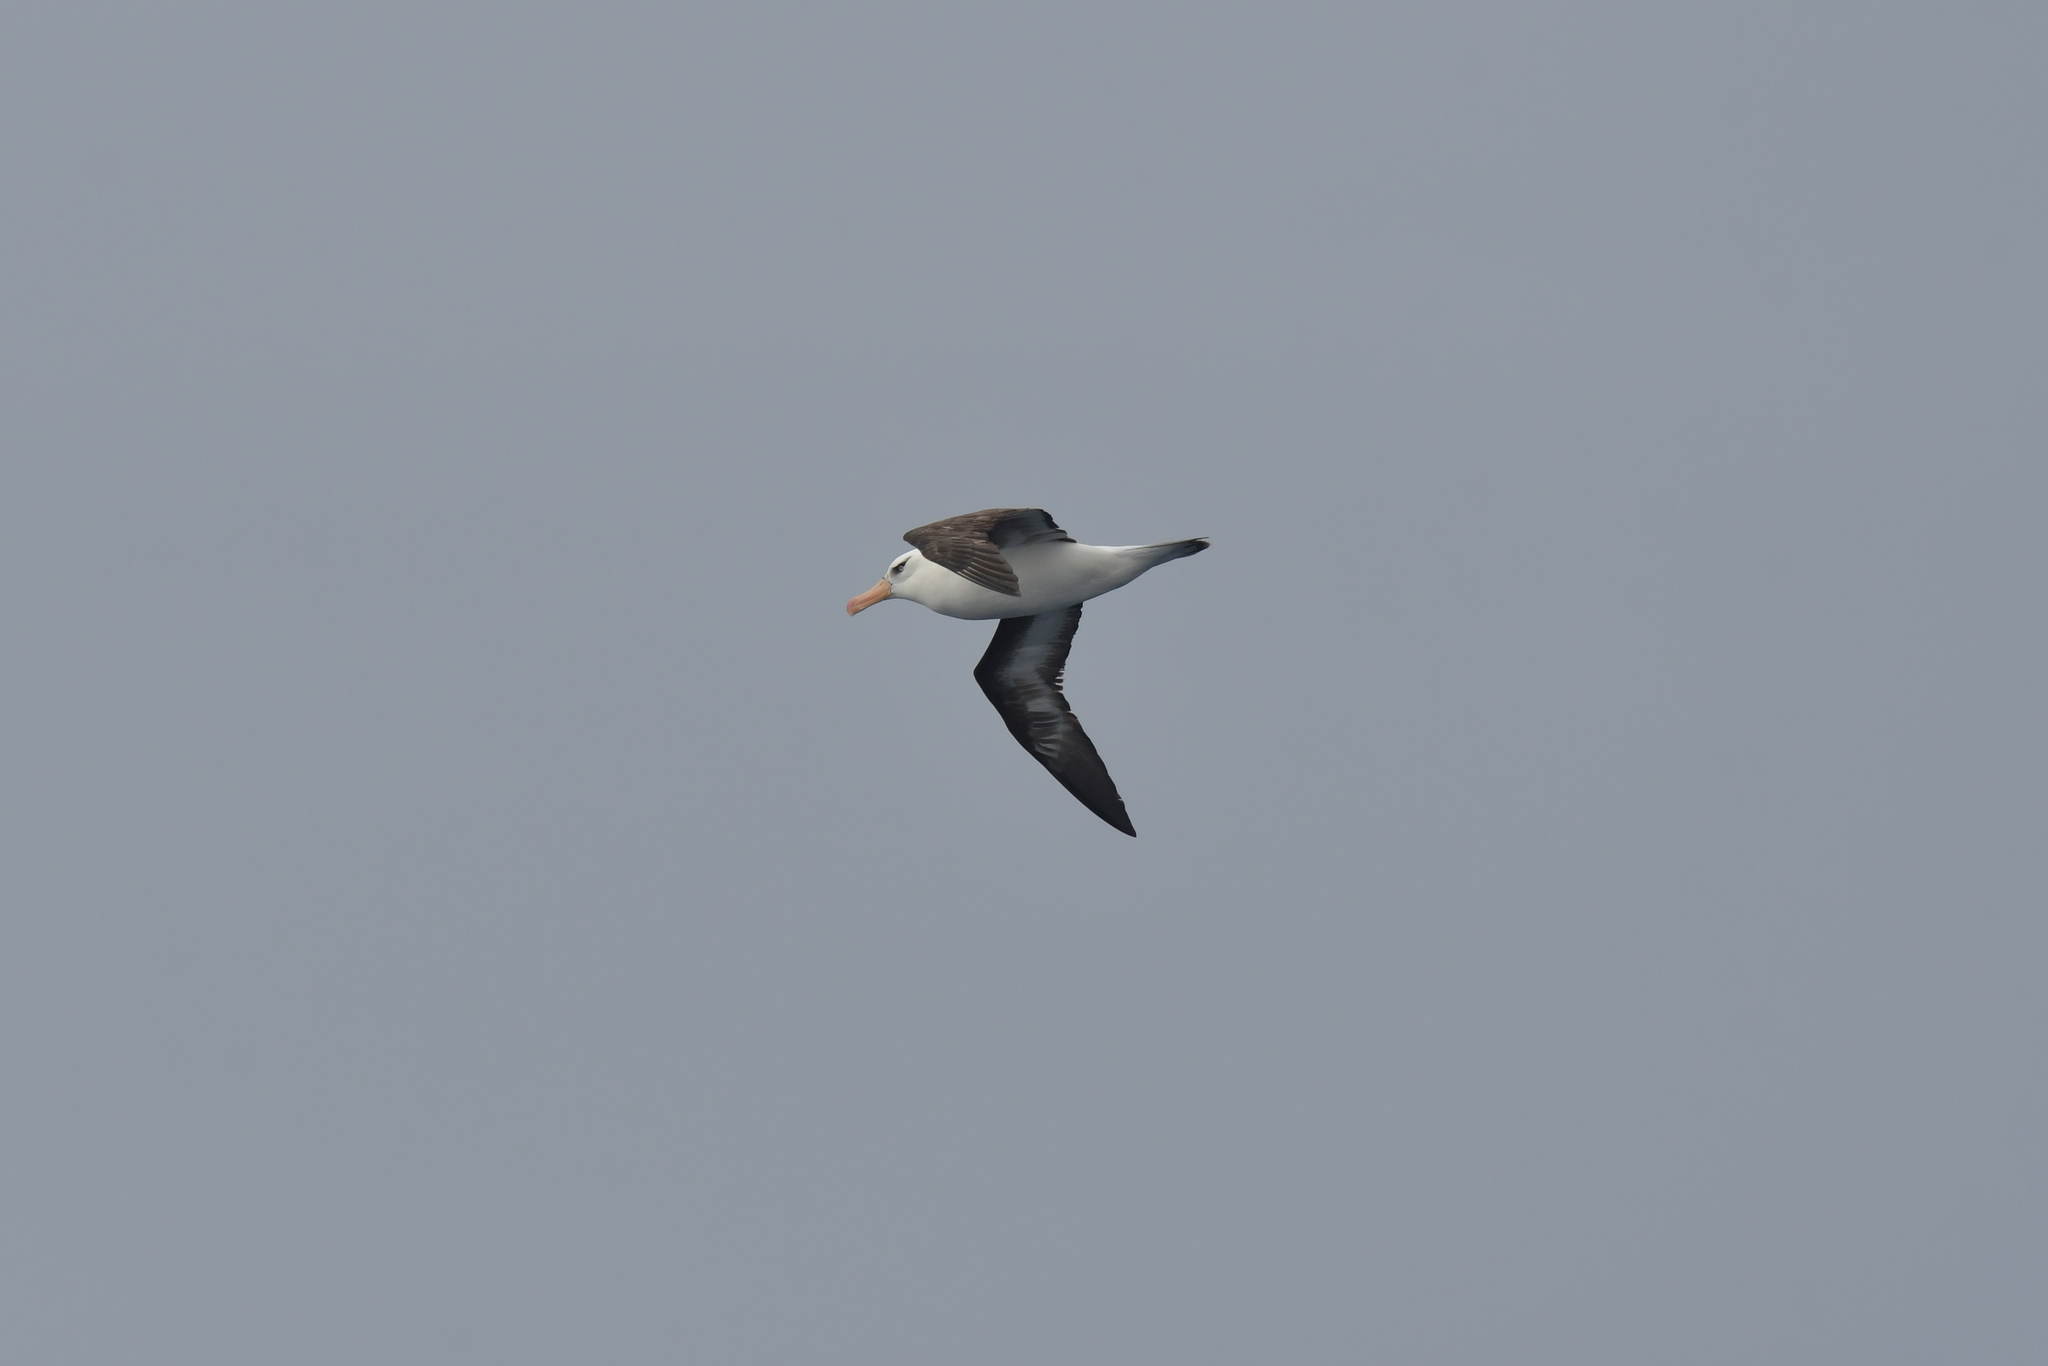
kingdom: Animalia
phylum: Chordata
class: Aves
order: Procellariiformes
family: Diomedeidae
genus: Thalassarche
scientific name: Thalassarche impavida
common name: Campbell albatross
